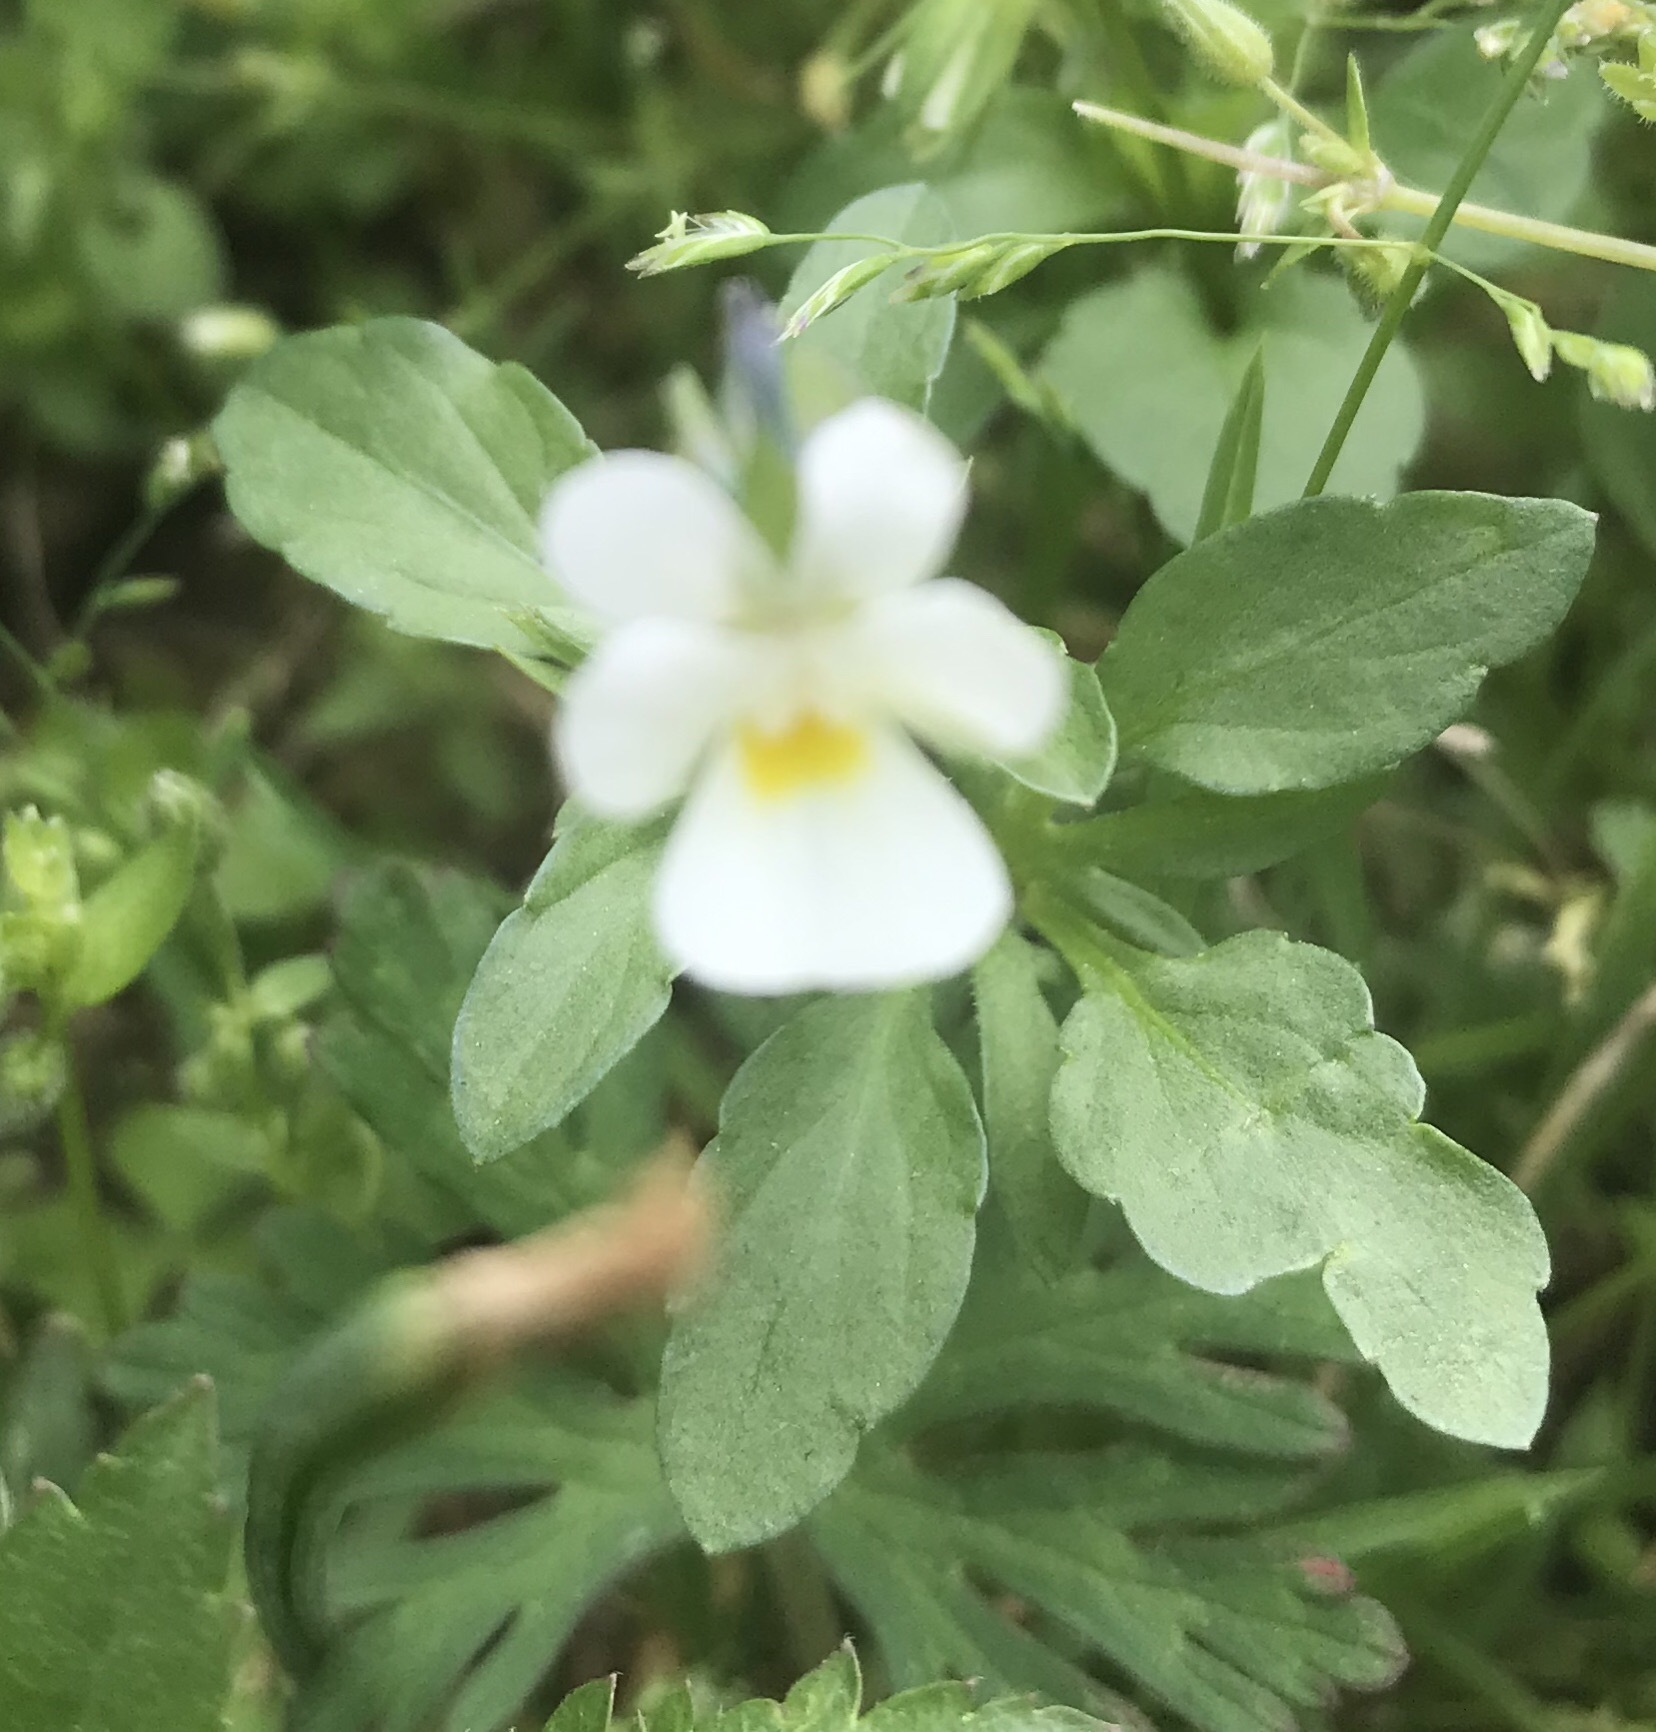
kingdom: Plantae
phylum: Tracheophyta
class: Magnoliopsida
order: Malpighiales
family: Violaceae
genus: Viola
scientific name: Viola arvensis
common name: Field pansy
